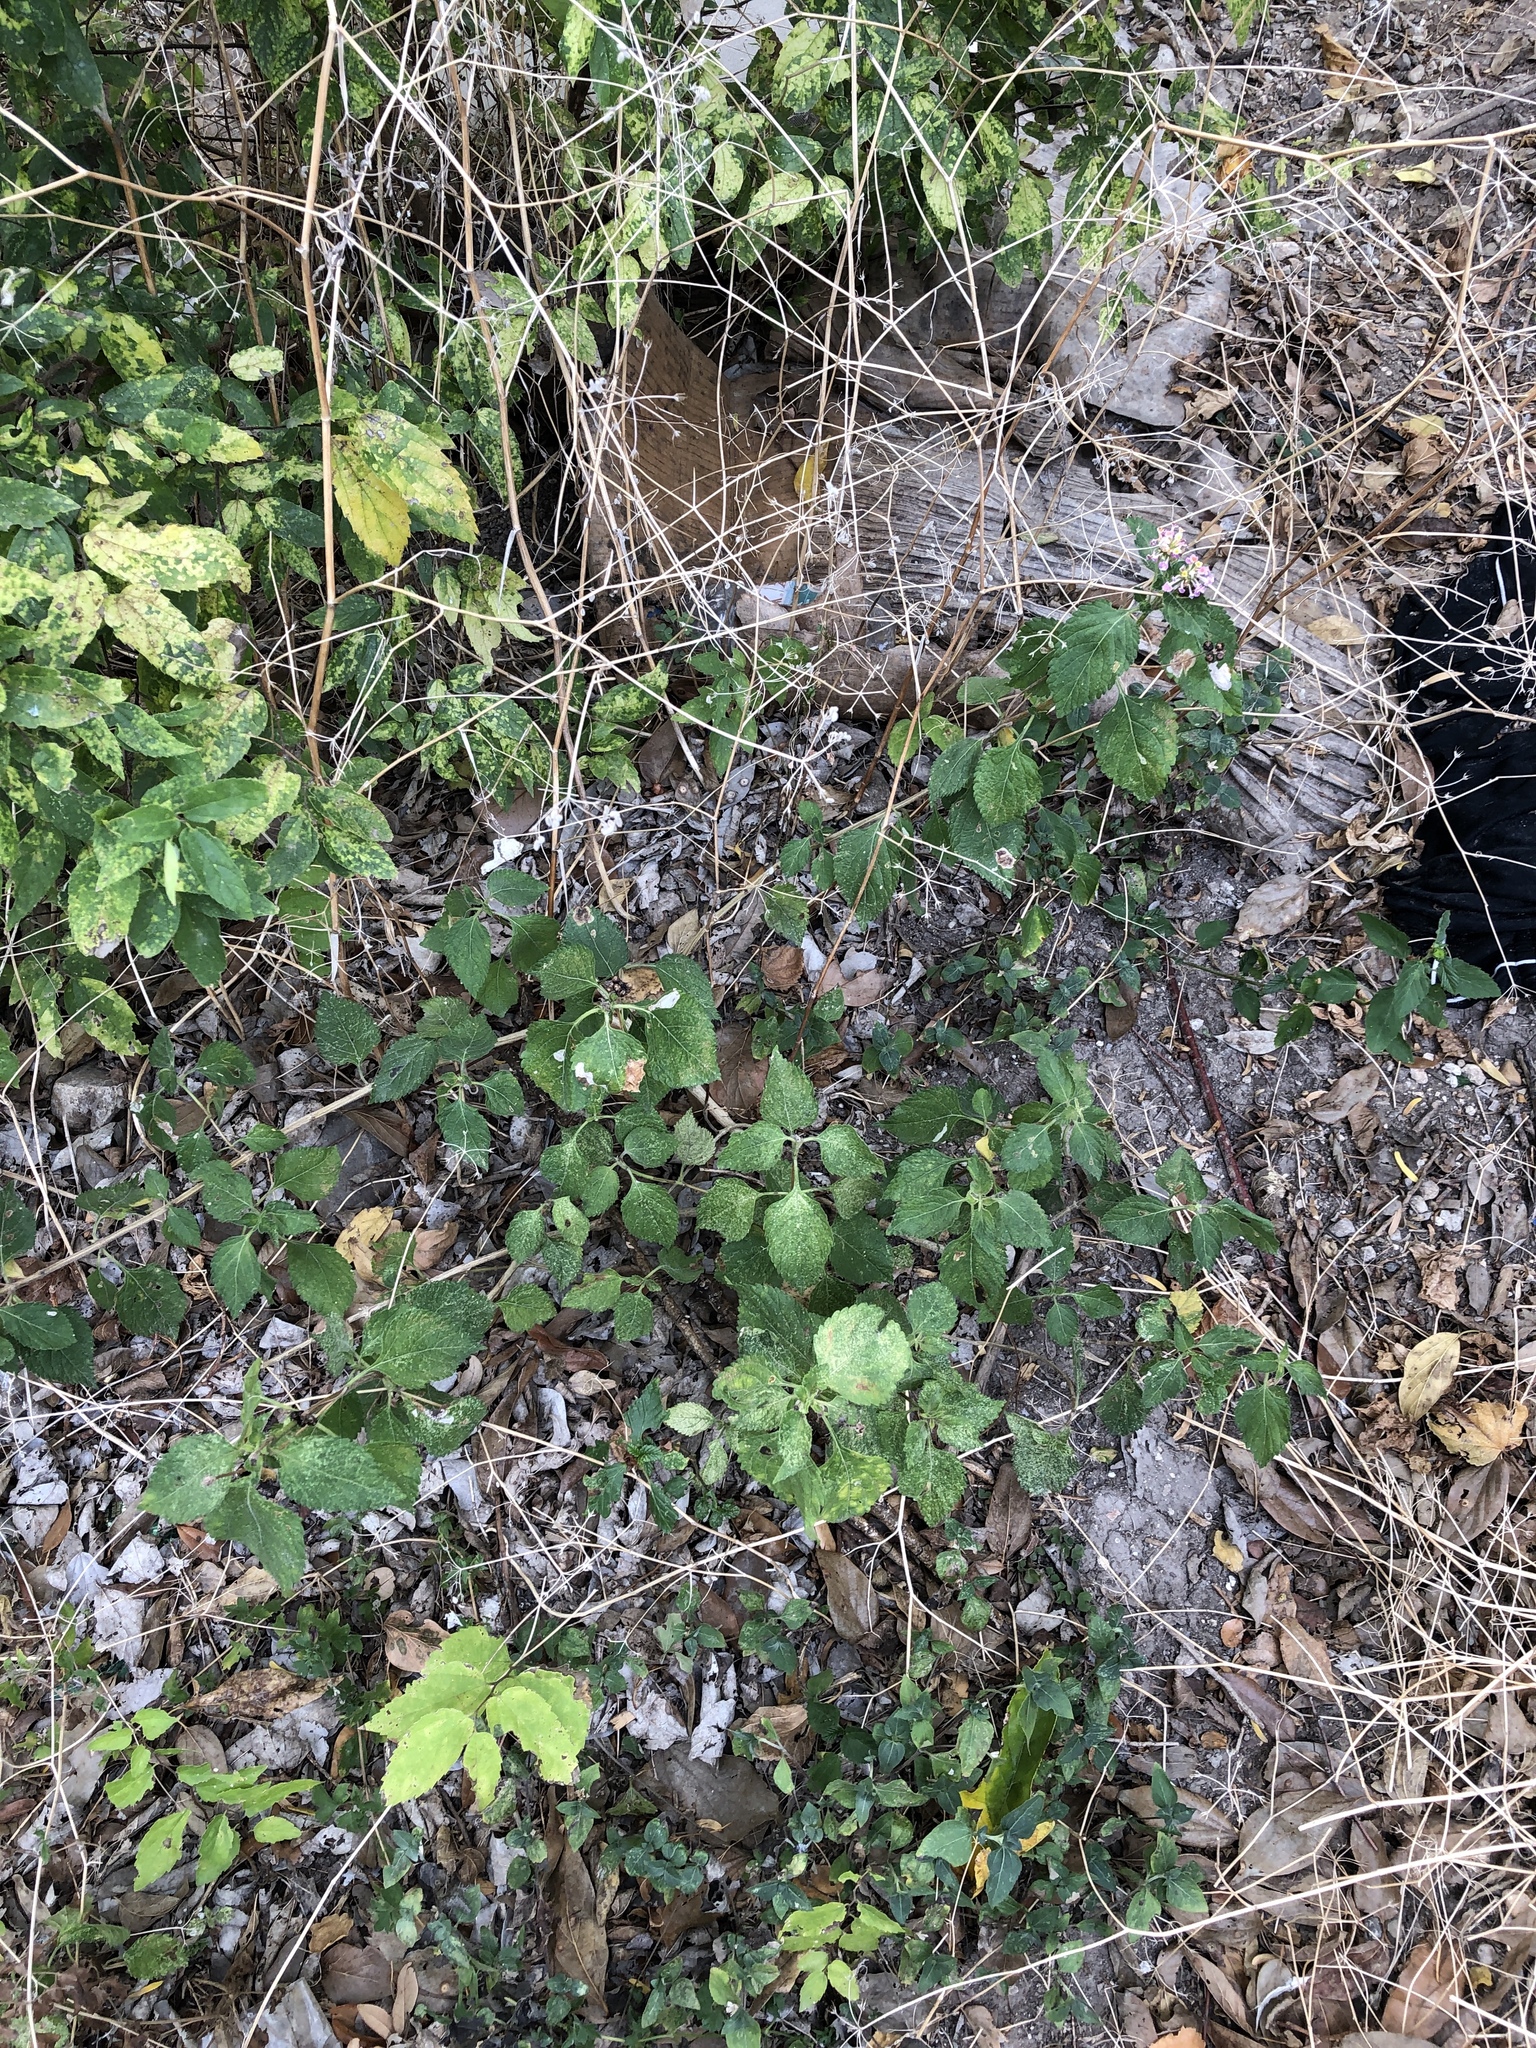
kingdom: Plantae
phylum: Tracheophyta
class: Magnoliopsida
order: Lamiales
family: Verbenaceae
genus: Lantana
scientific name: Lantana strigocamara
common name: Lantana
